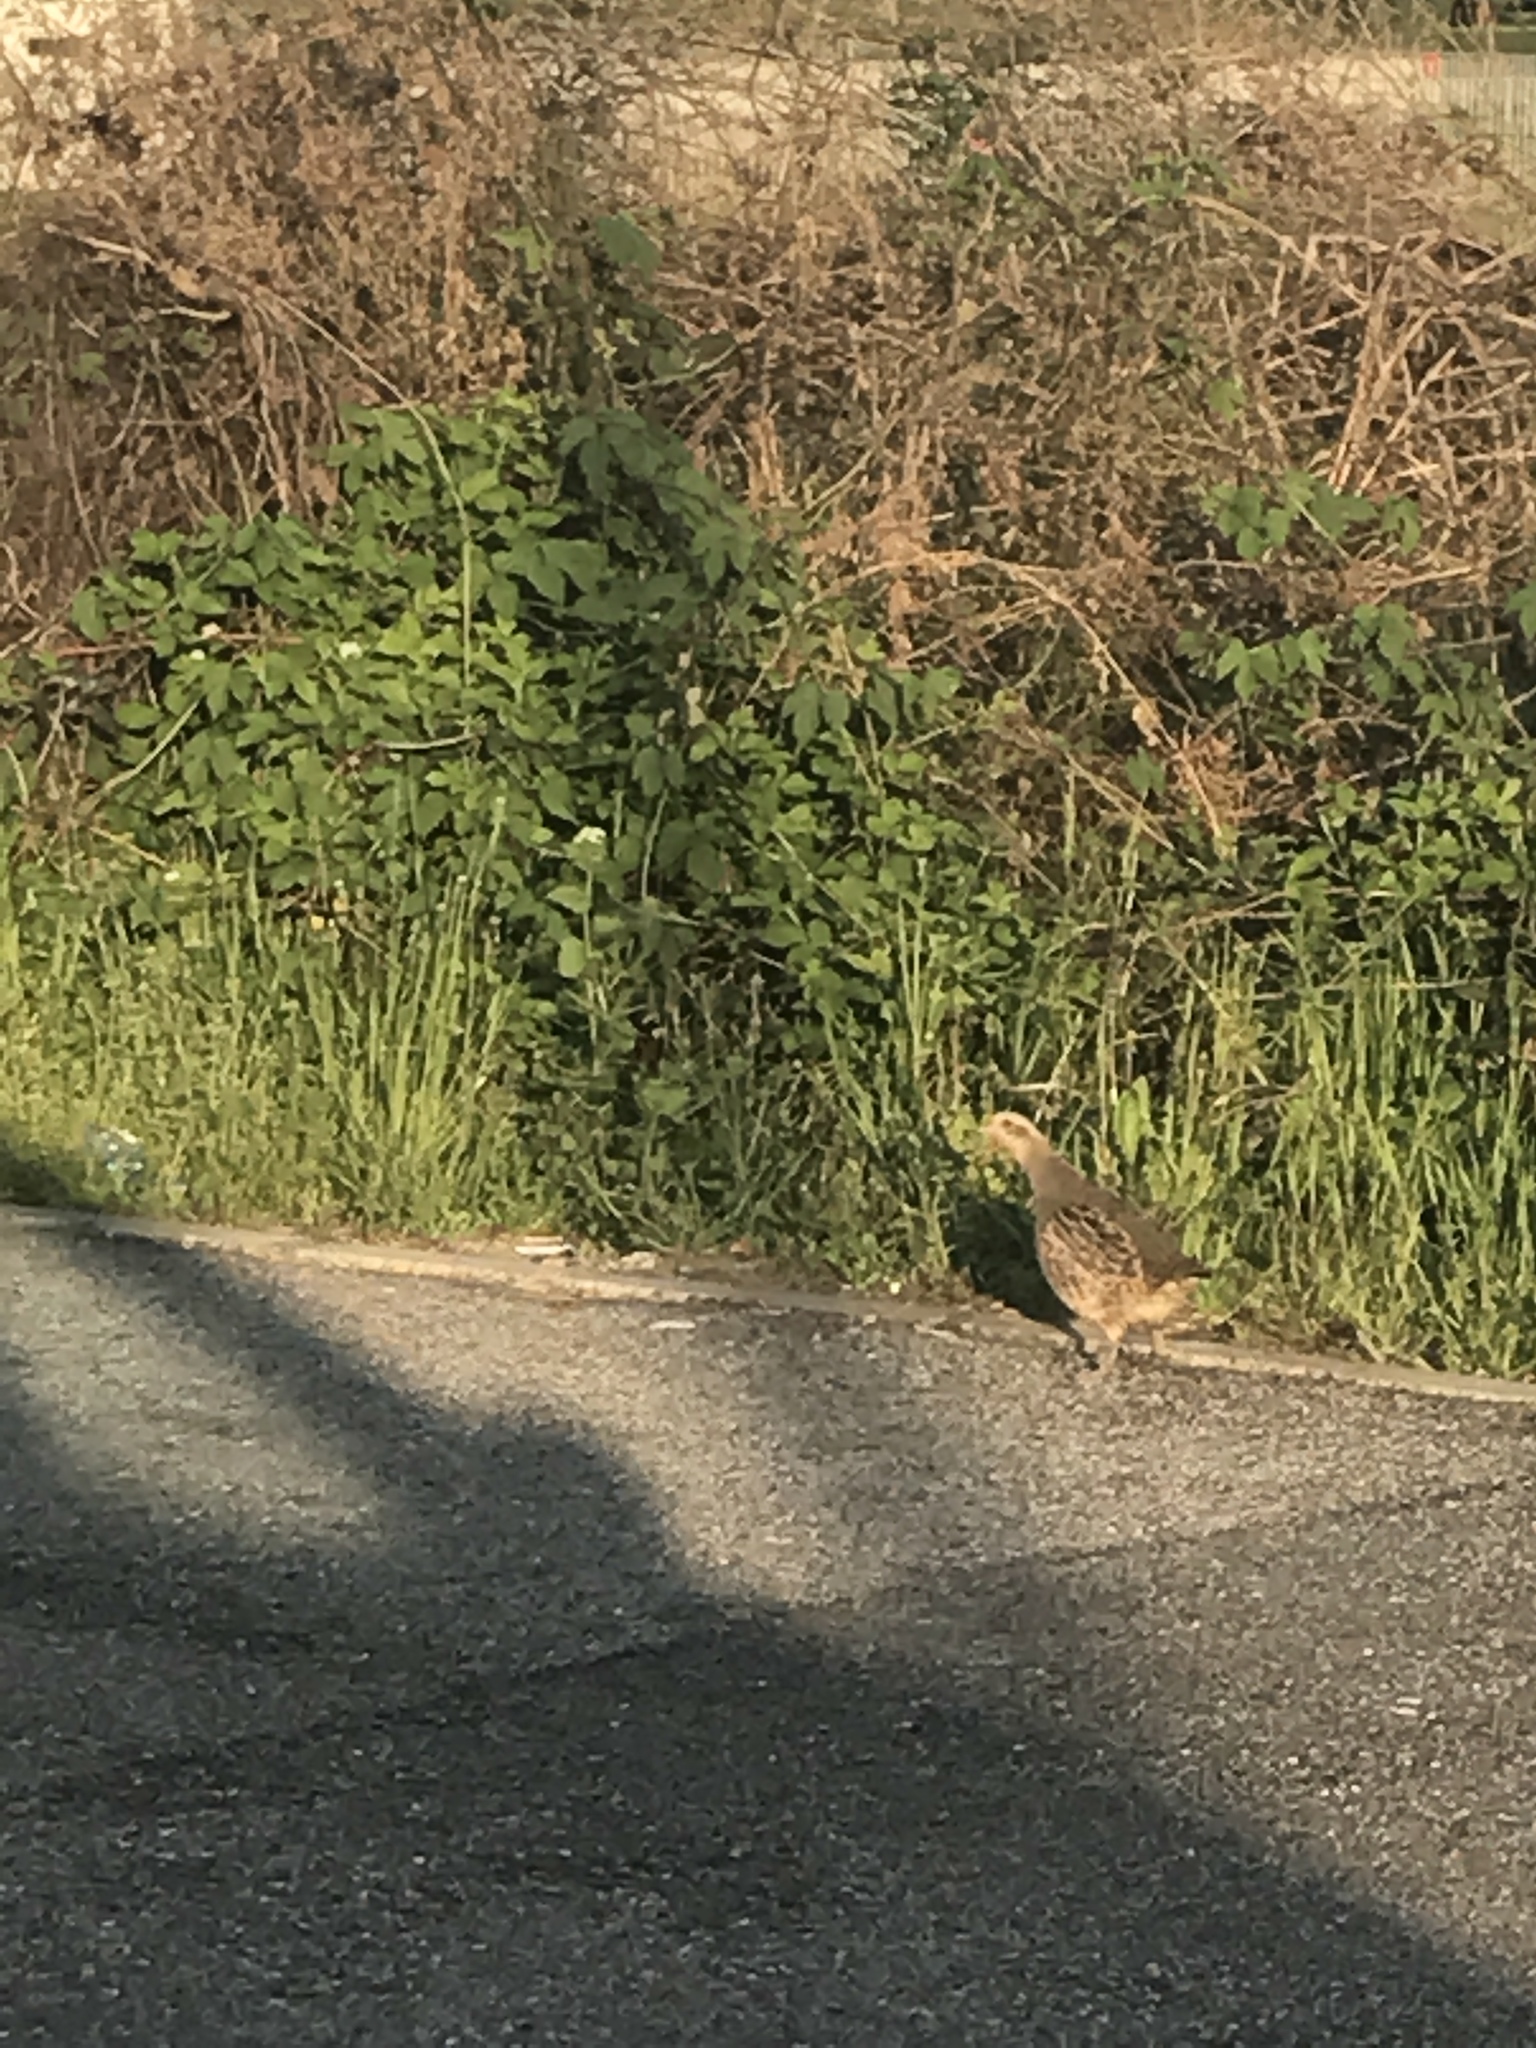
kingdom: Animalia
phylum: Chordata
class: Aves
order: Galliformes
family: Phasianidae
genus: Perdix
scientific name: Perdix perdix
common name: Grey partridge
